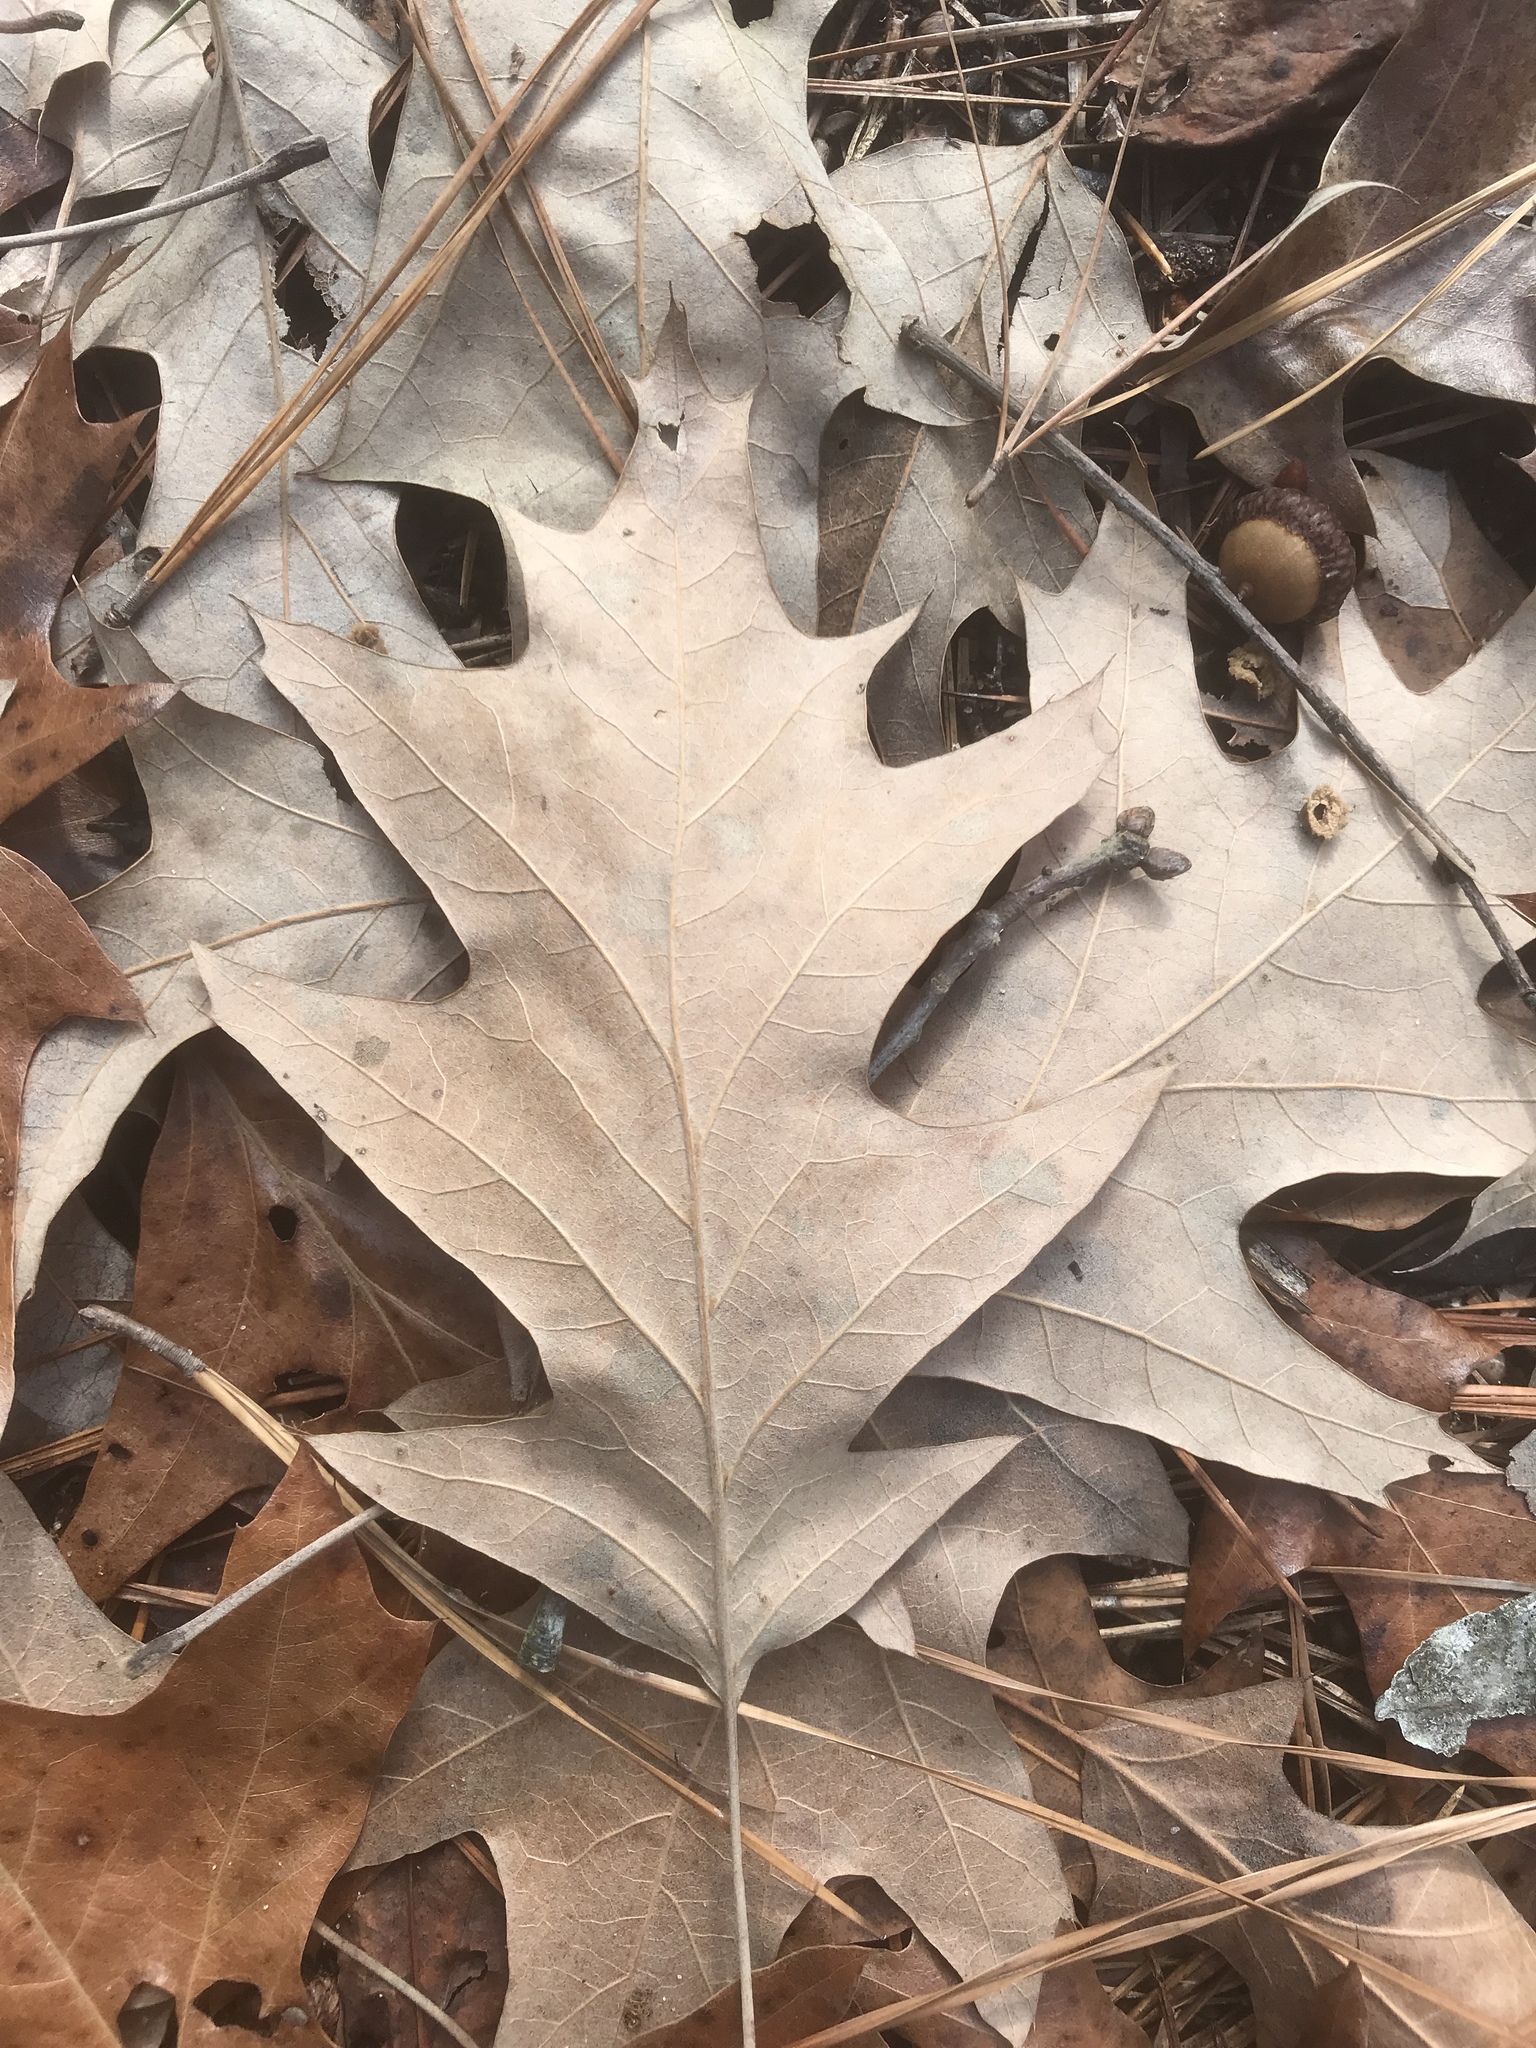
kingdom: Plantae
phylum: Tracheophyta
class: Magnoliopsida
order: Fagales
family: Fagaceae
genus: Quercus
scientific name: Quercus pagoda
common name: Cherrybark oak
